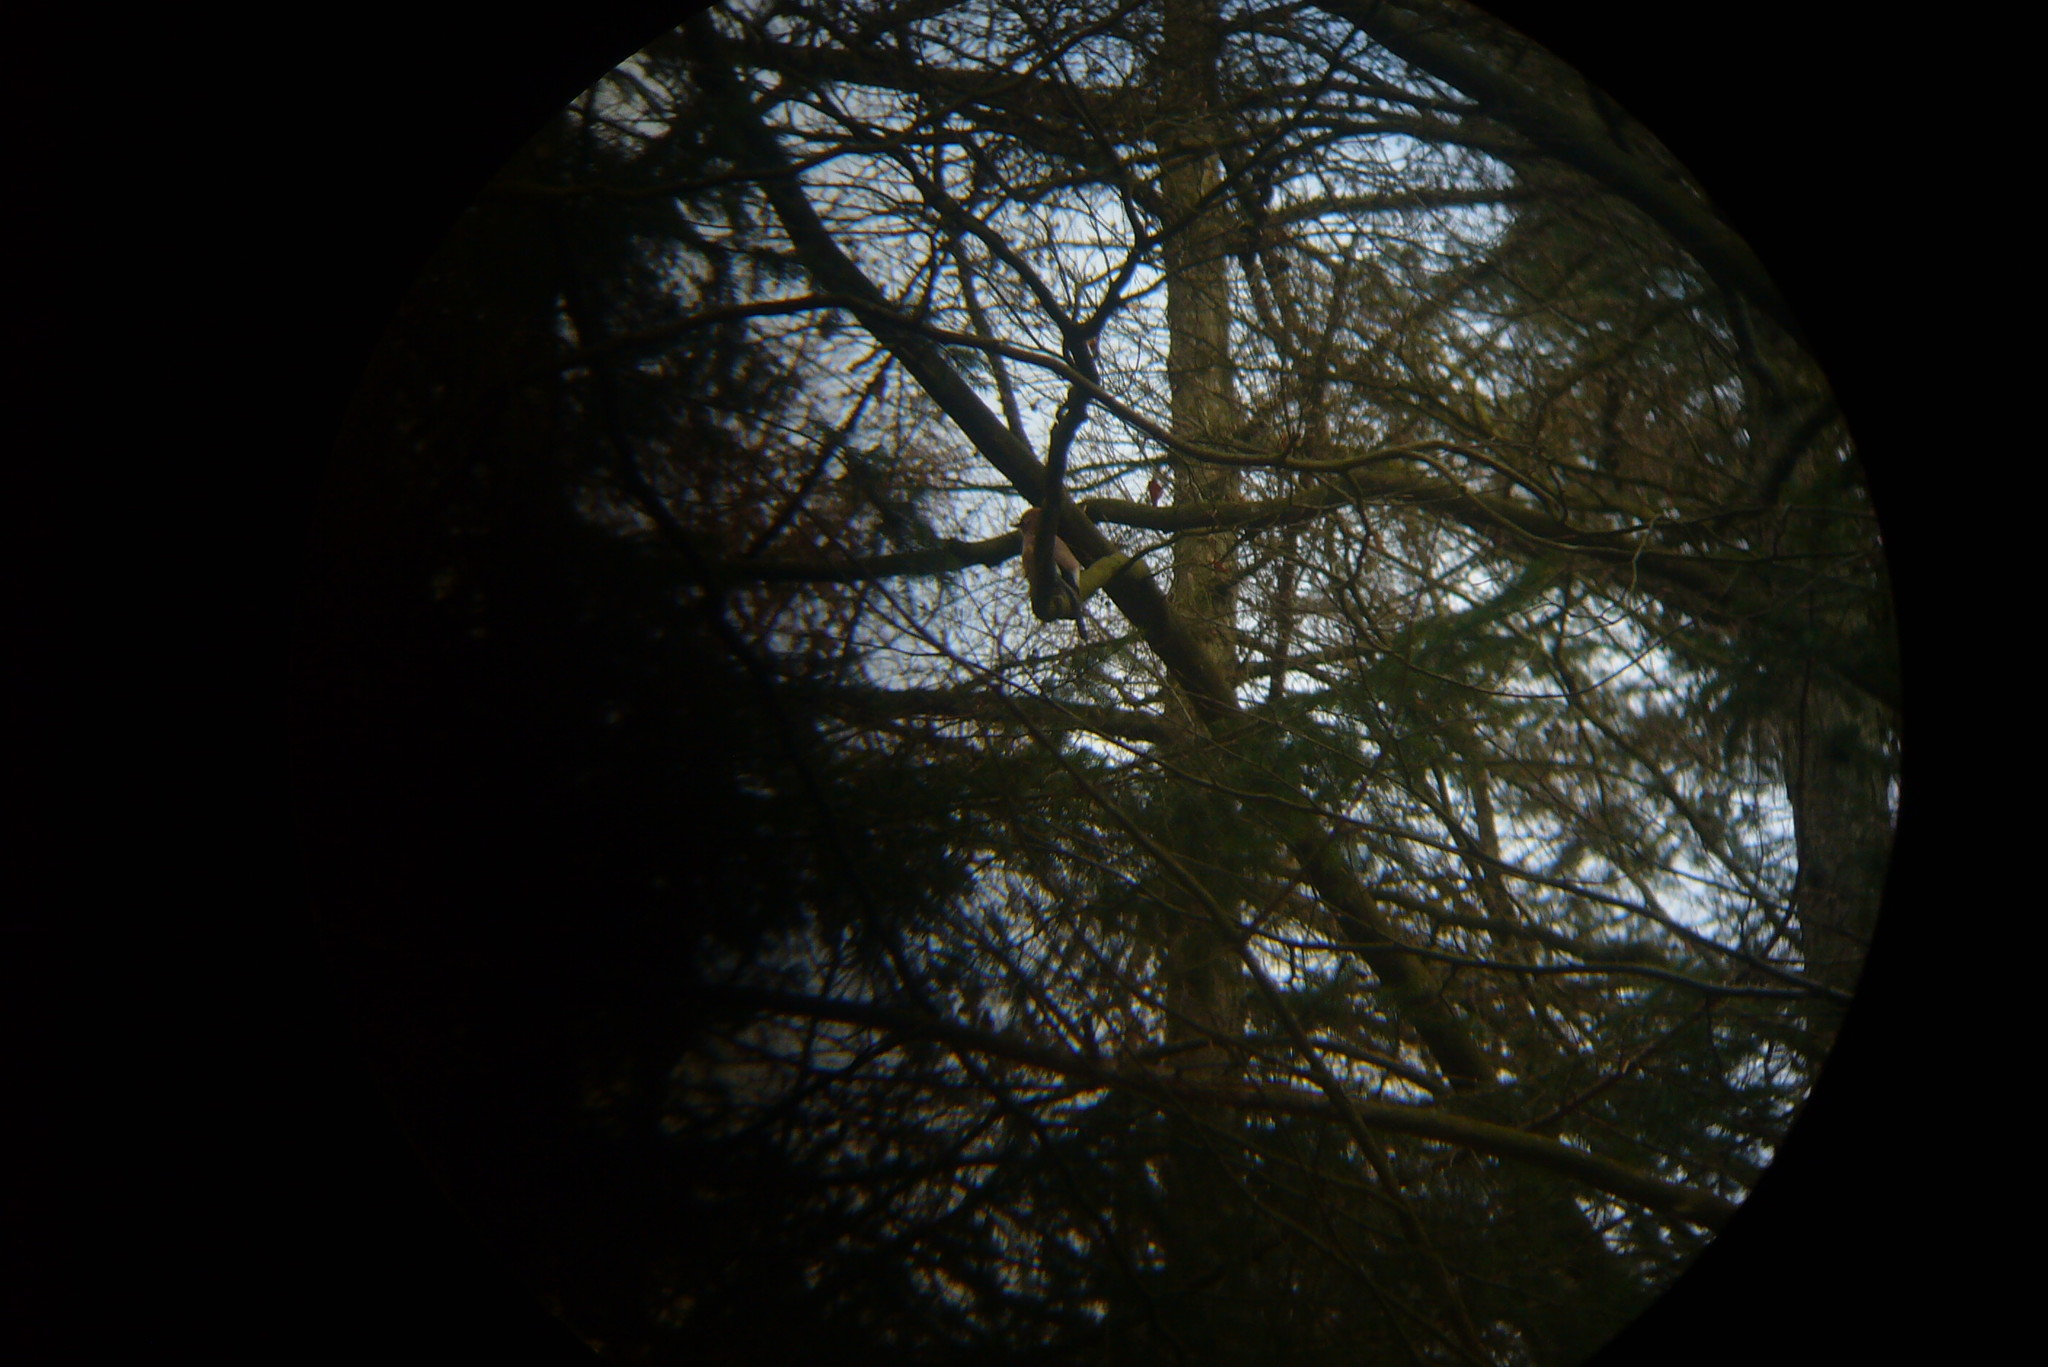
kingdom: Animalia
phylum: Chordata
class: Aves
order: Passeriformes
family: Corvidae
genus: Garrulus
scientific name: Garrulus glandarius
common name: Eurasian jay
